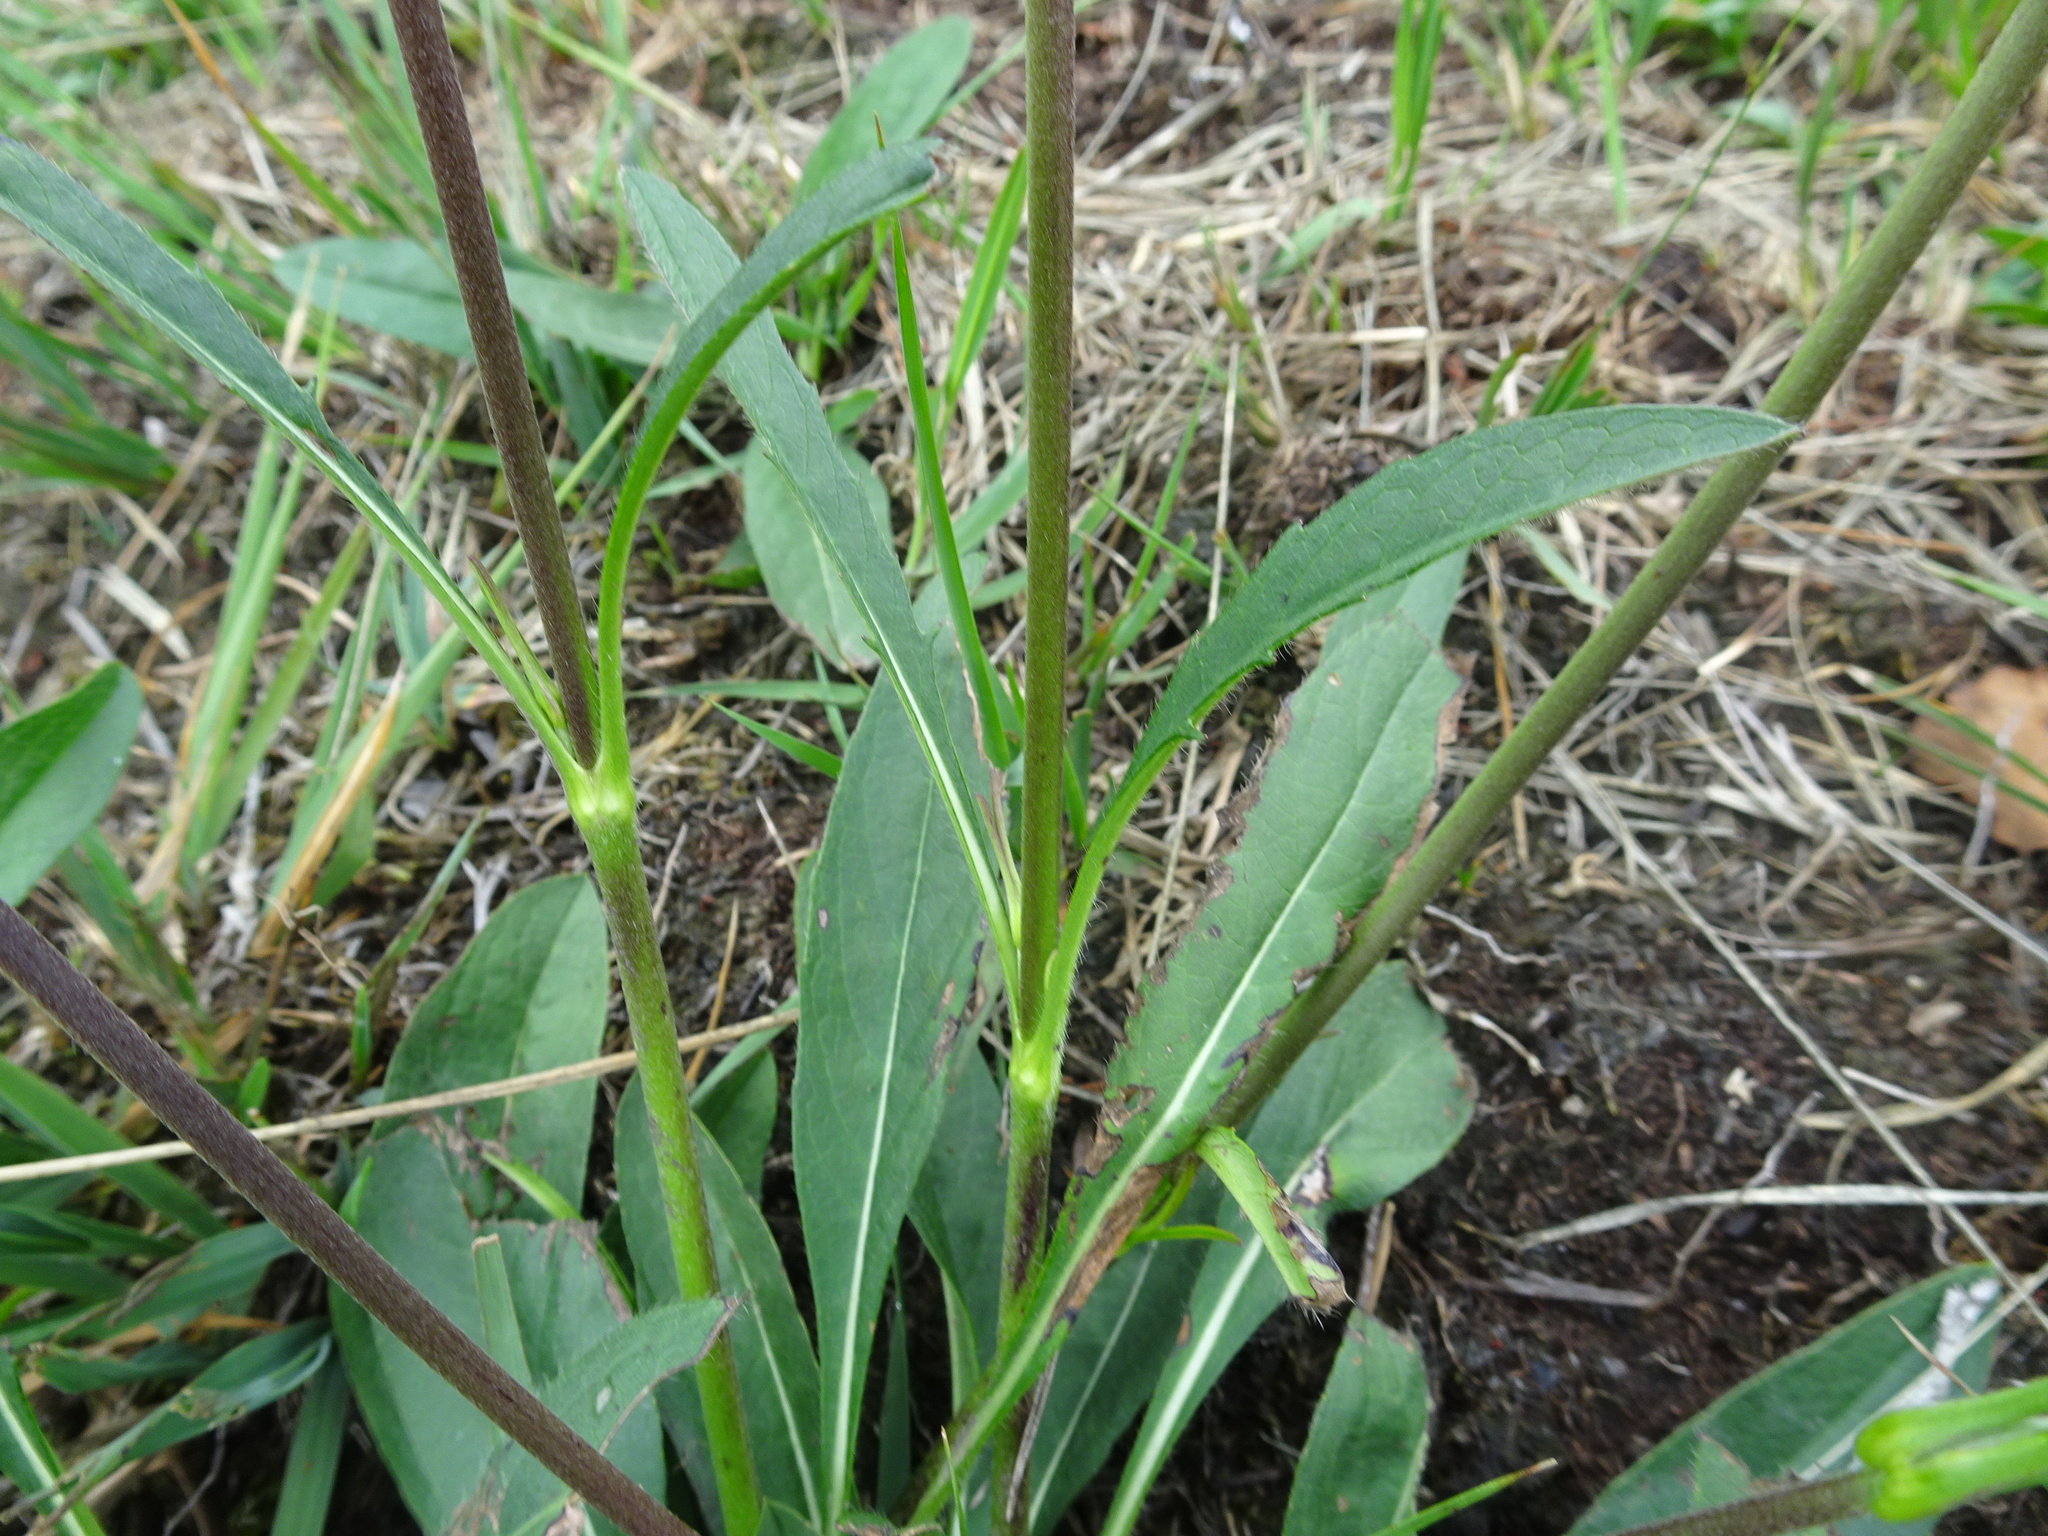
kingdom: Plantae
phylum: Tracheophyta
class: Magnoliopsida
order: Dipsacales
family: Caprifoliaceae
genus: Succisa
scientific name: Succisa pratensis
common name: Devil's-bit
